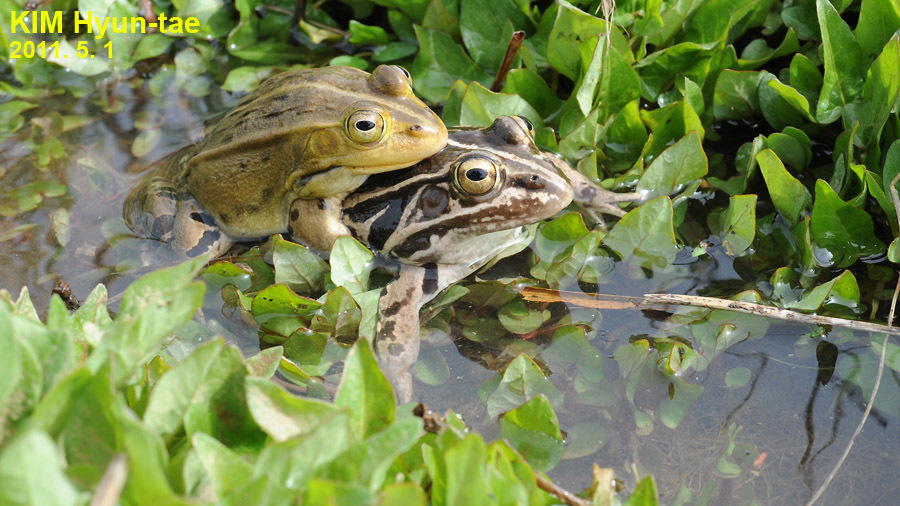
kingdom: Animalia
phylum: Chordata
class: Amphibia
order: Anura
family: Ranidae
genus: Pelophylax
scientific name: Pelophylax nigromaculatus
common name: Black-spotted pond frog
